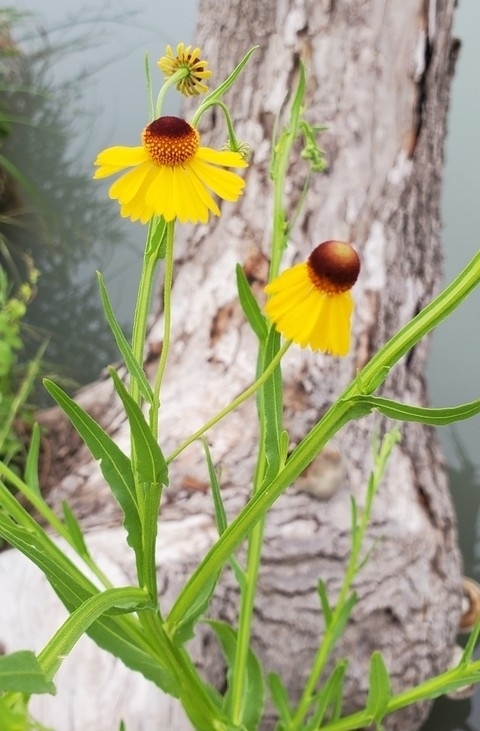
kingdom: Plantae
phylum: Tracheophyta
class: Magnoliopsida
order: Asterales
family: Asteraceae
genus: Helenium
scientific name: Helenium elegans
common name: Pretty sneezeweed
